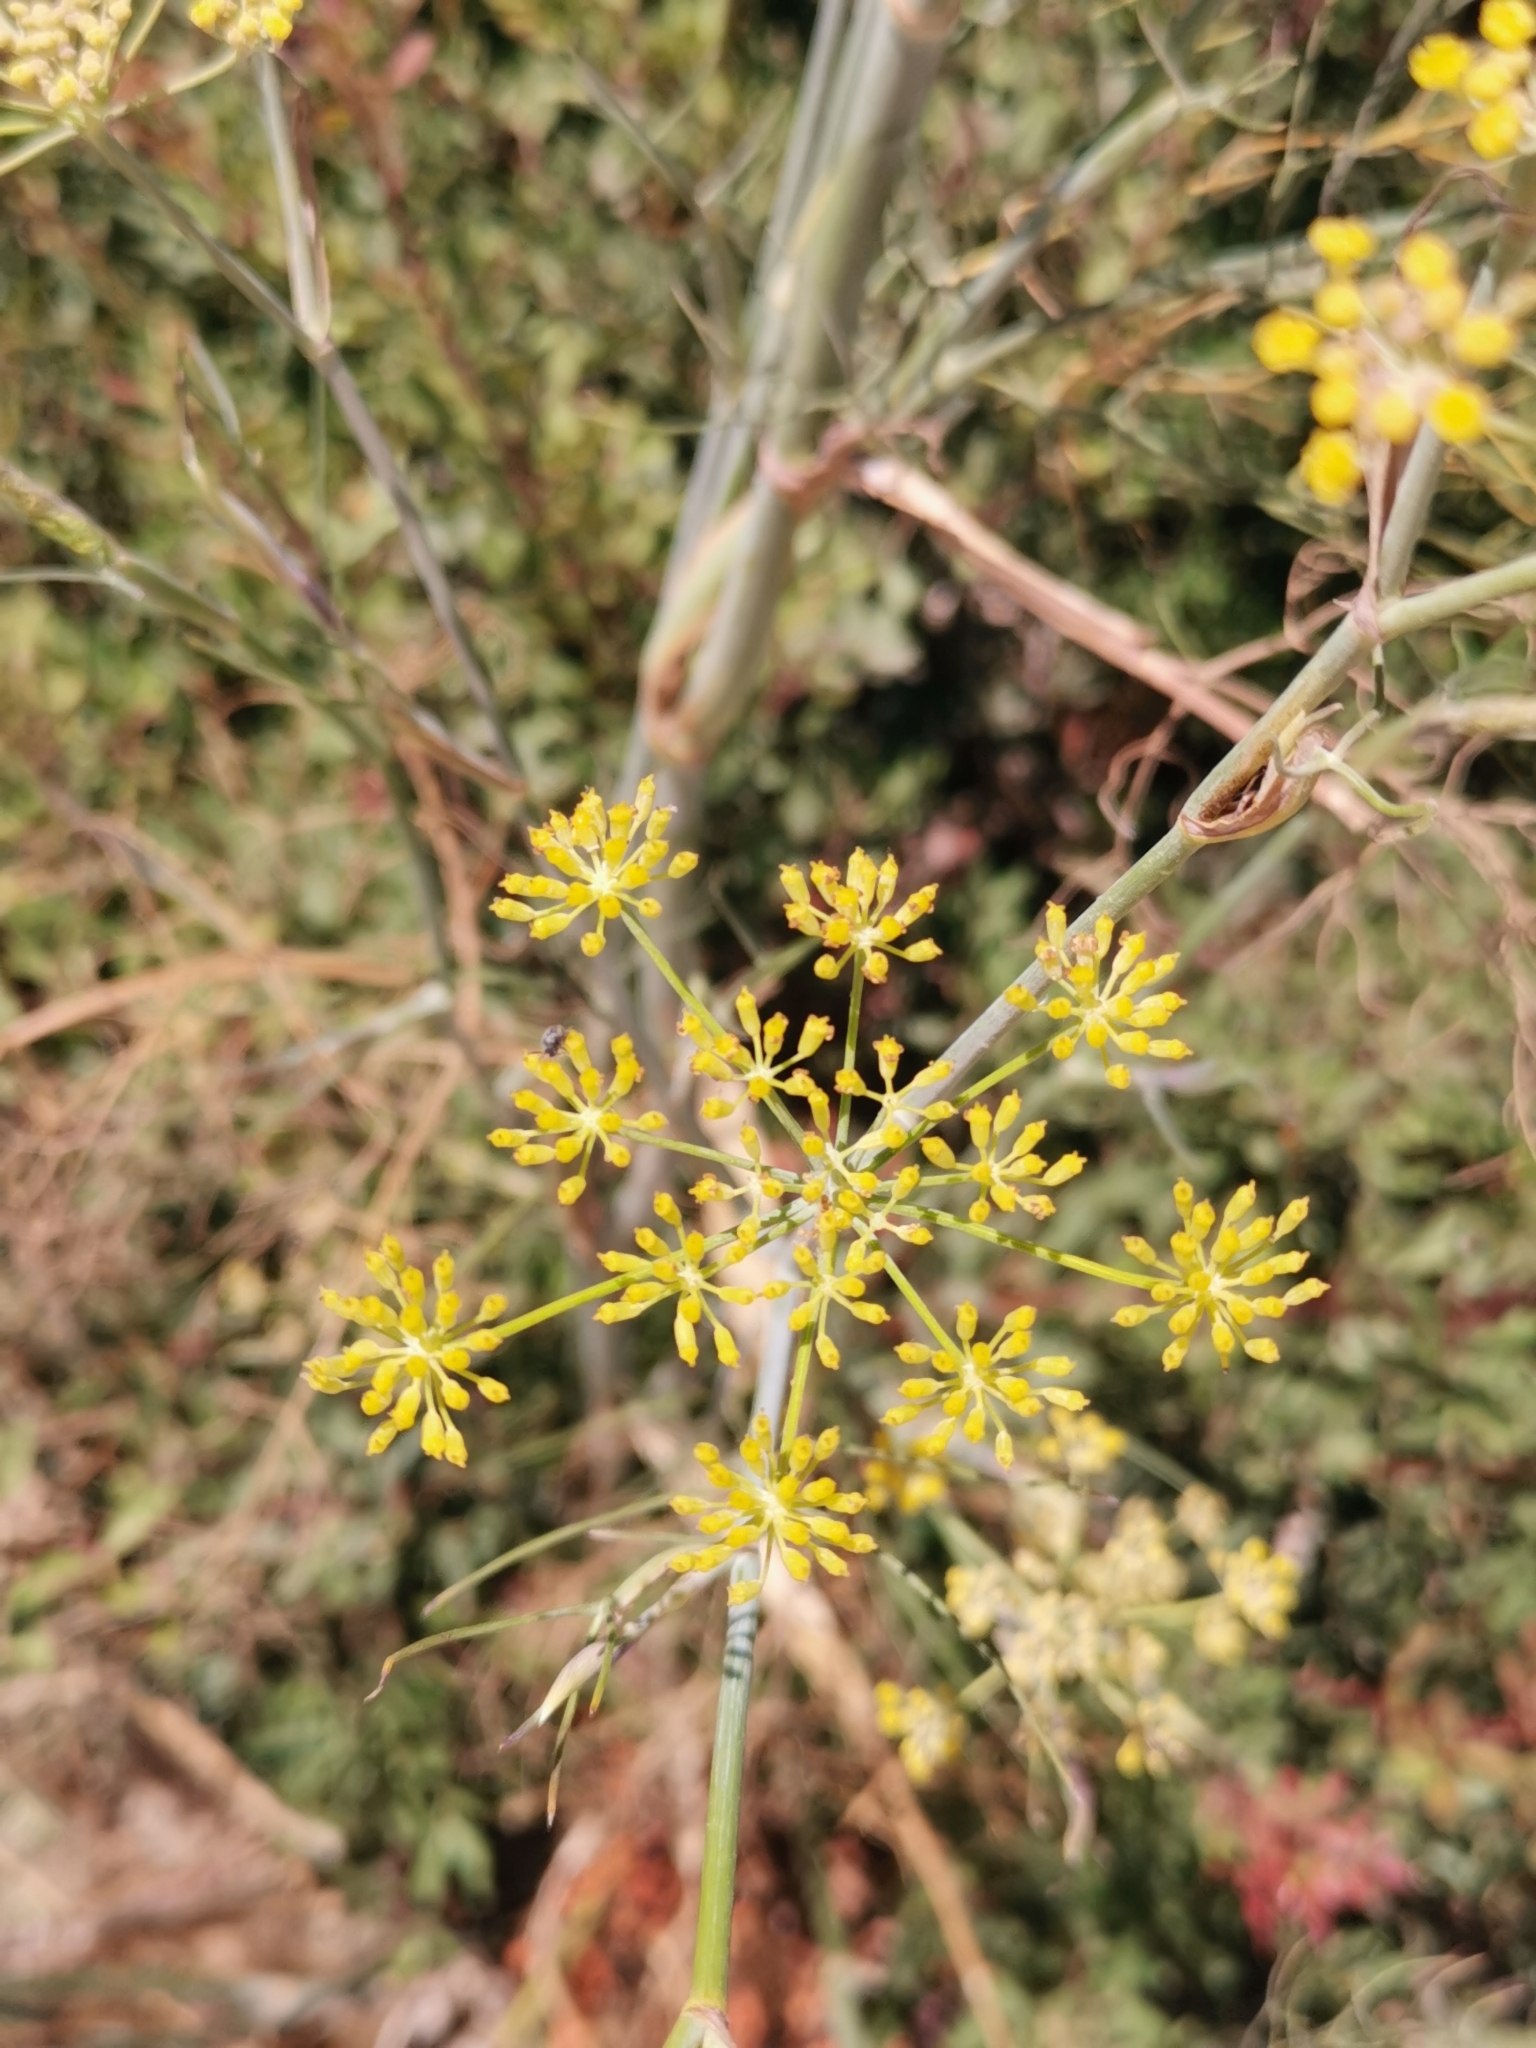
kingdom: Plantae
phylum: Tracheophyta
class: Magnoliopsida
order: Apiales
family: Apiaceae
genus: Foeniculum
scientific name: Foeniculum vulgare
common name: Fennel
